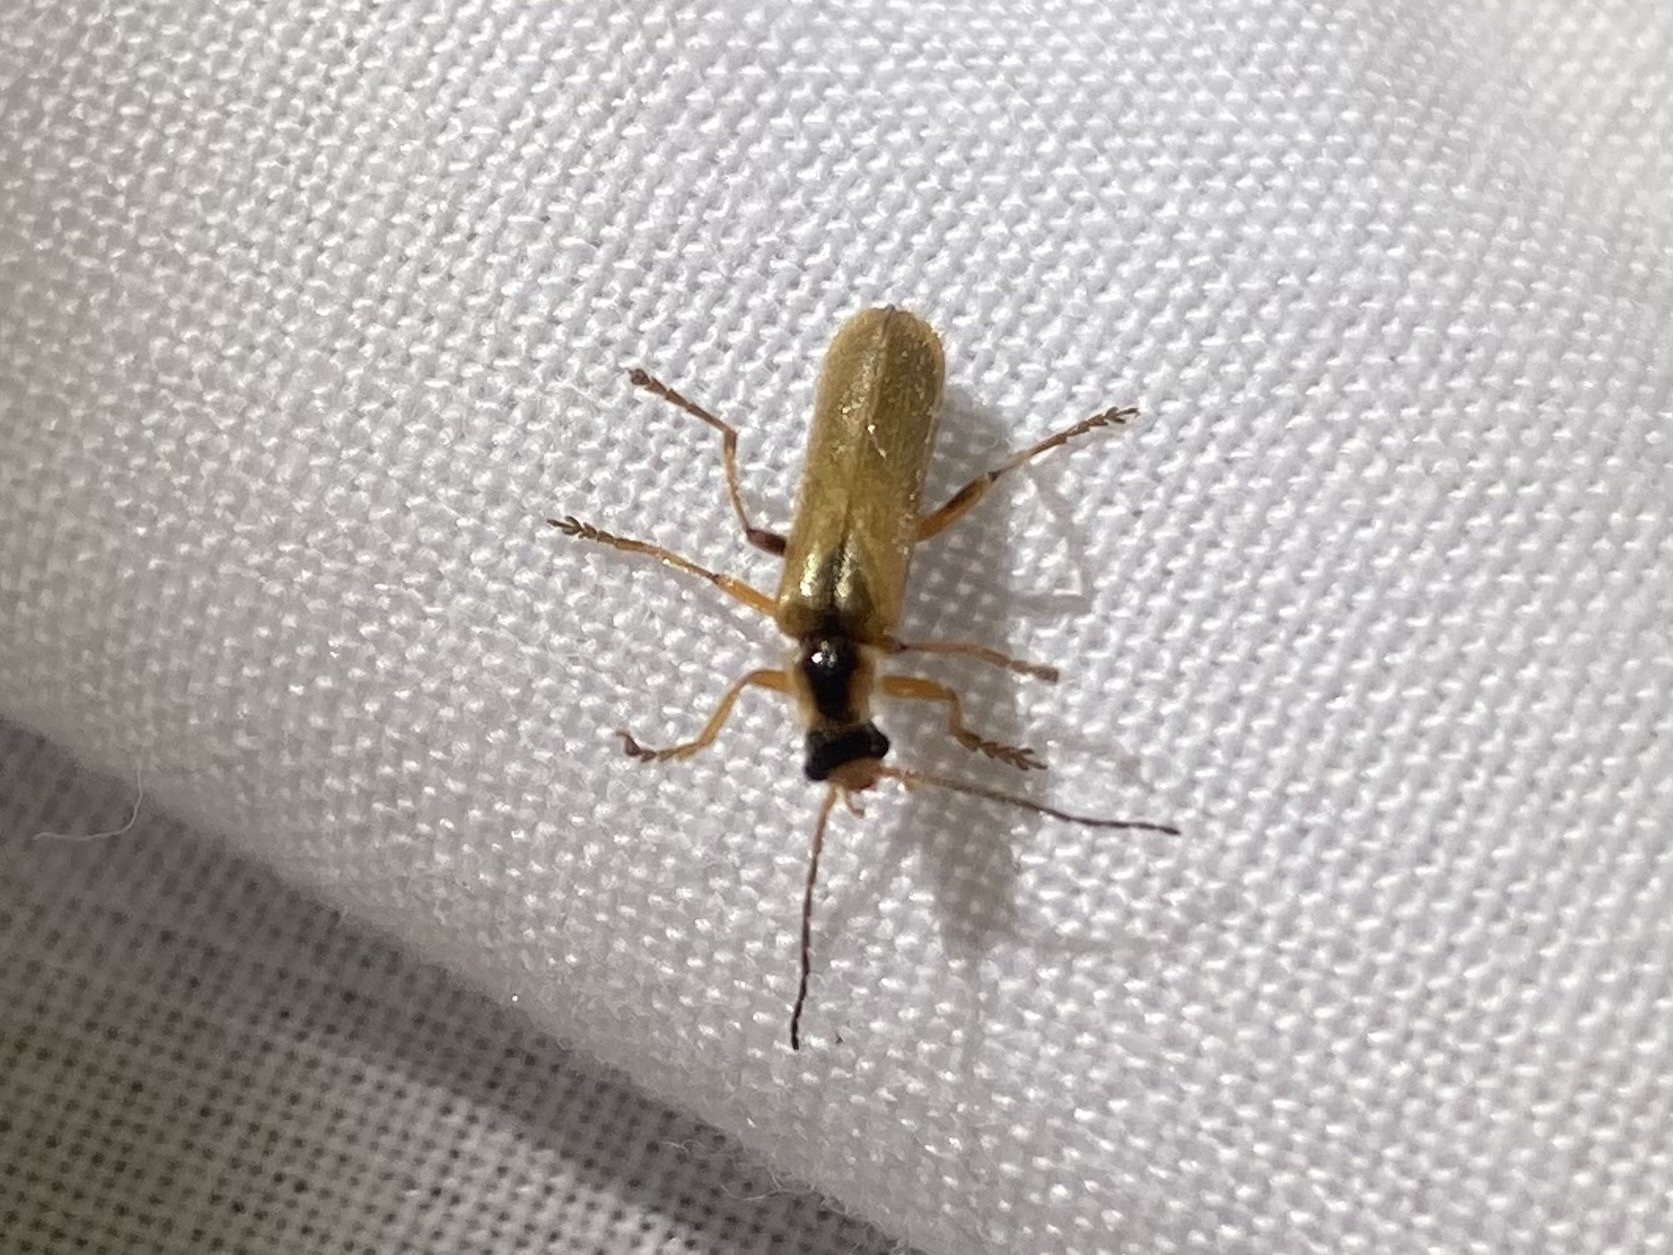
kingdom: Animalia
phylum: Arthropoda
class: Insecta
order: Coleoptera
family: Cantharidae
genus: Cantharis
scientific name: Cantharis decipiens
